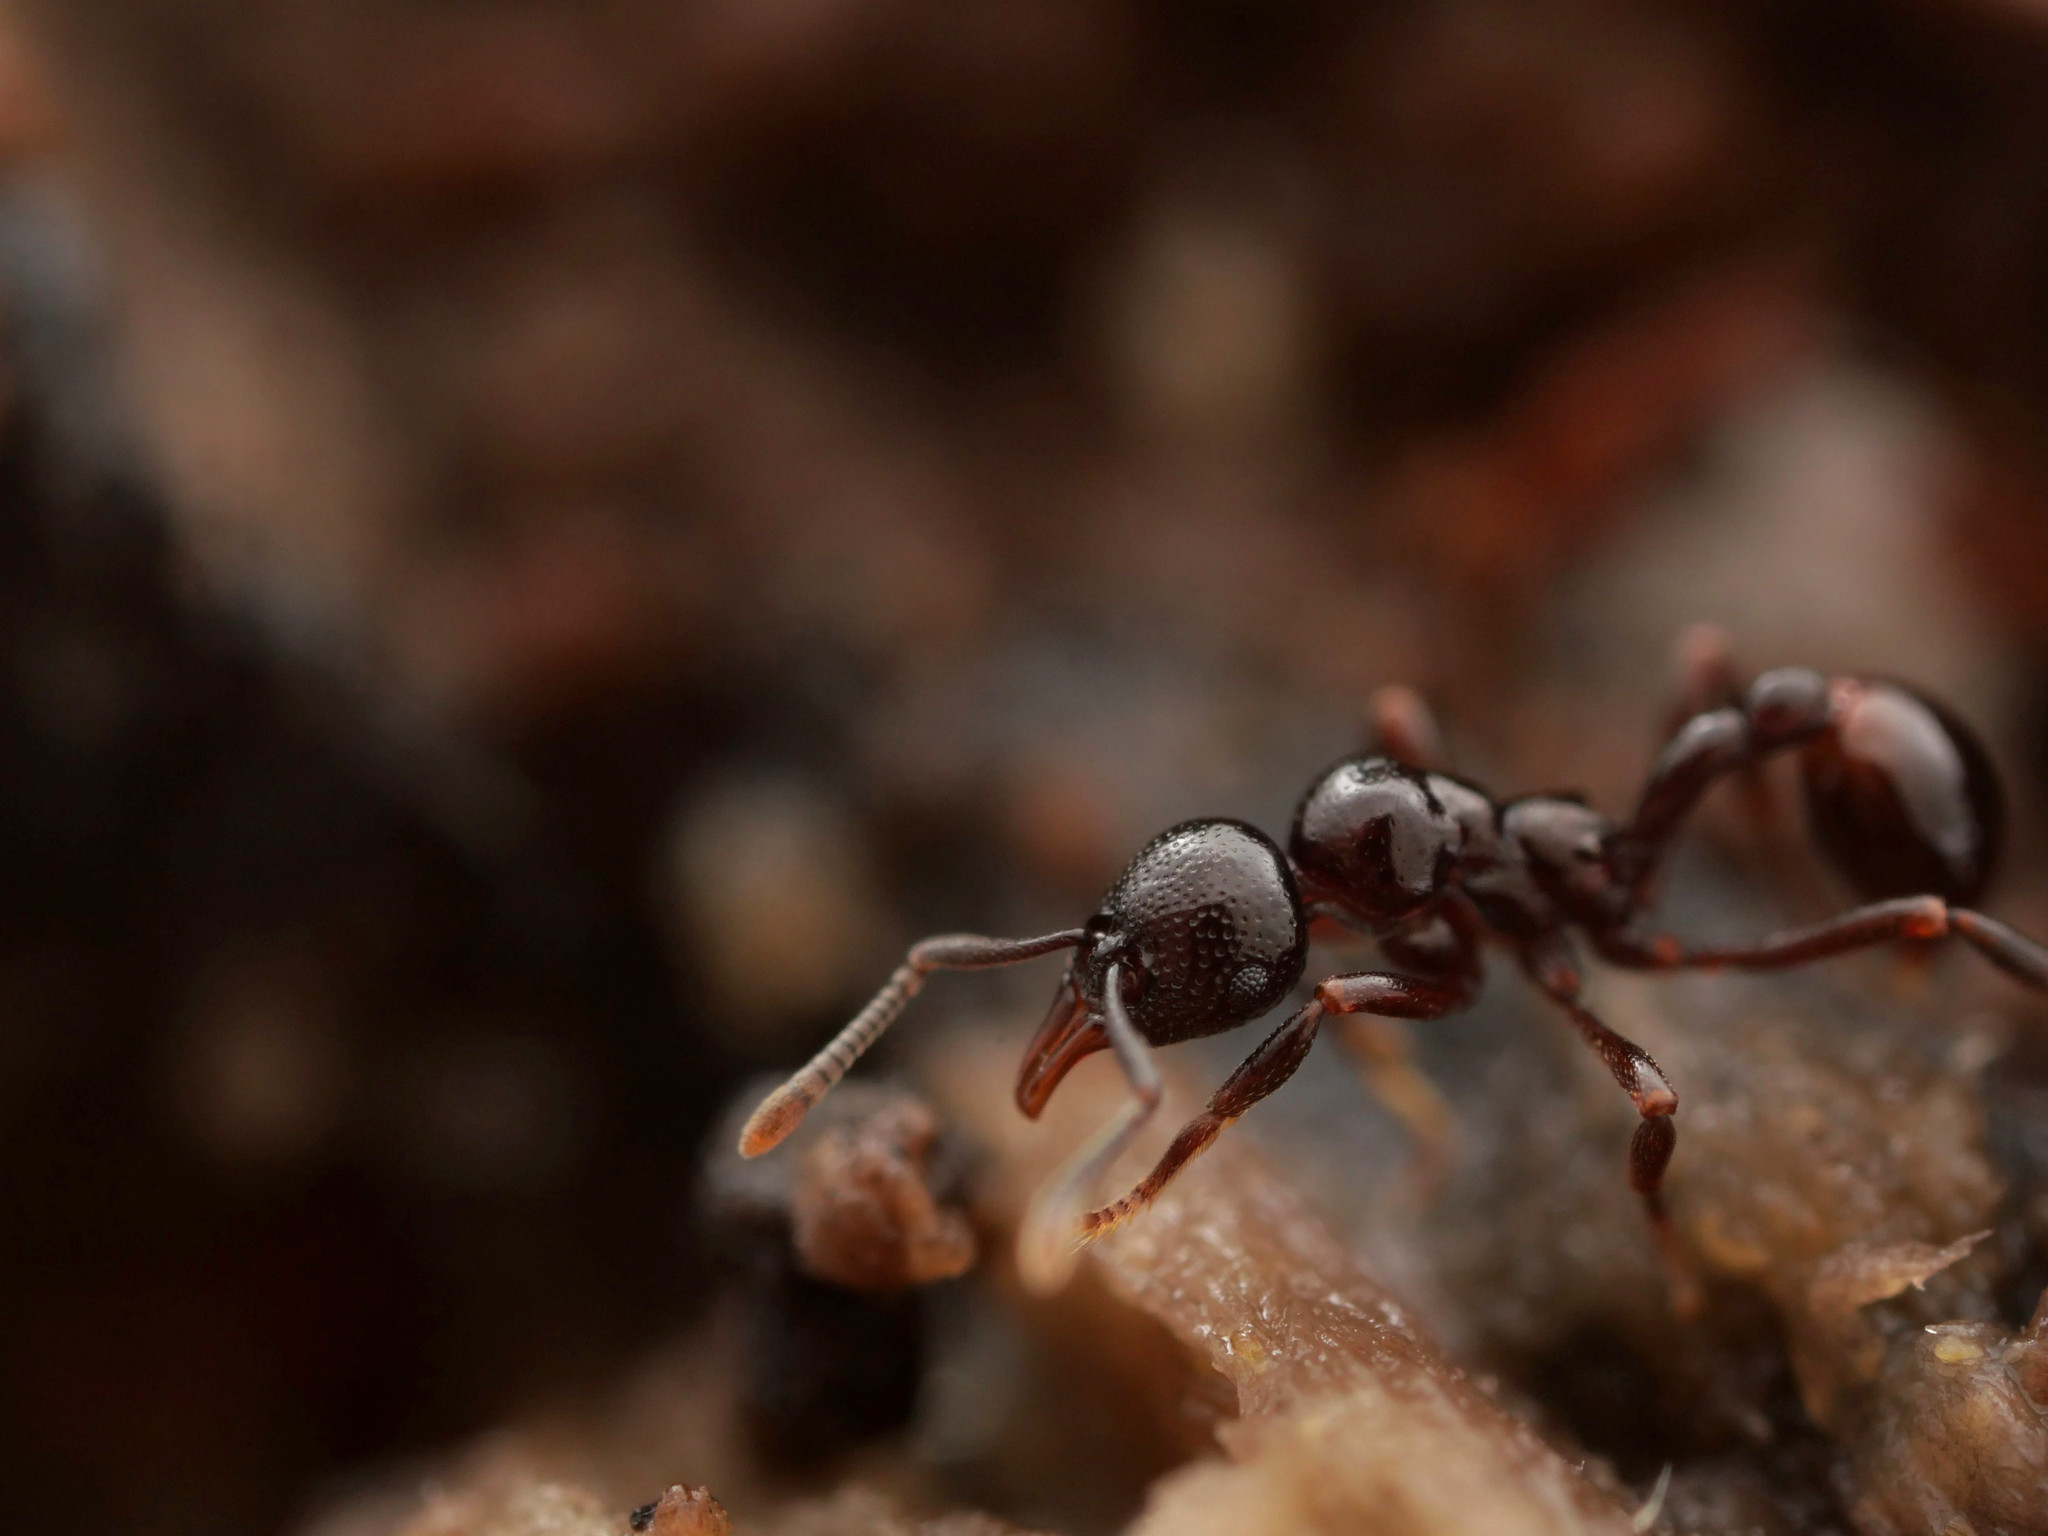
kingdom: Animalia
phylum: Arthropoda
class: Insecta
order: Hymenoptera
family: Formicidae
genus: Lenomyrmex
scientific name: Lenomyrmex foveolatus
